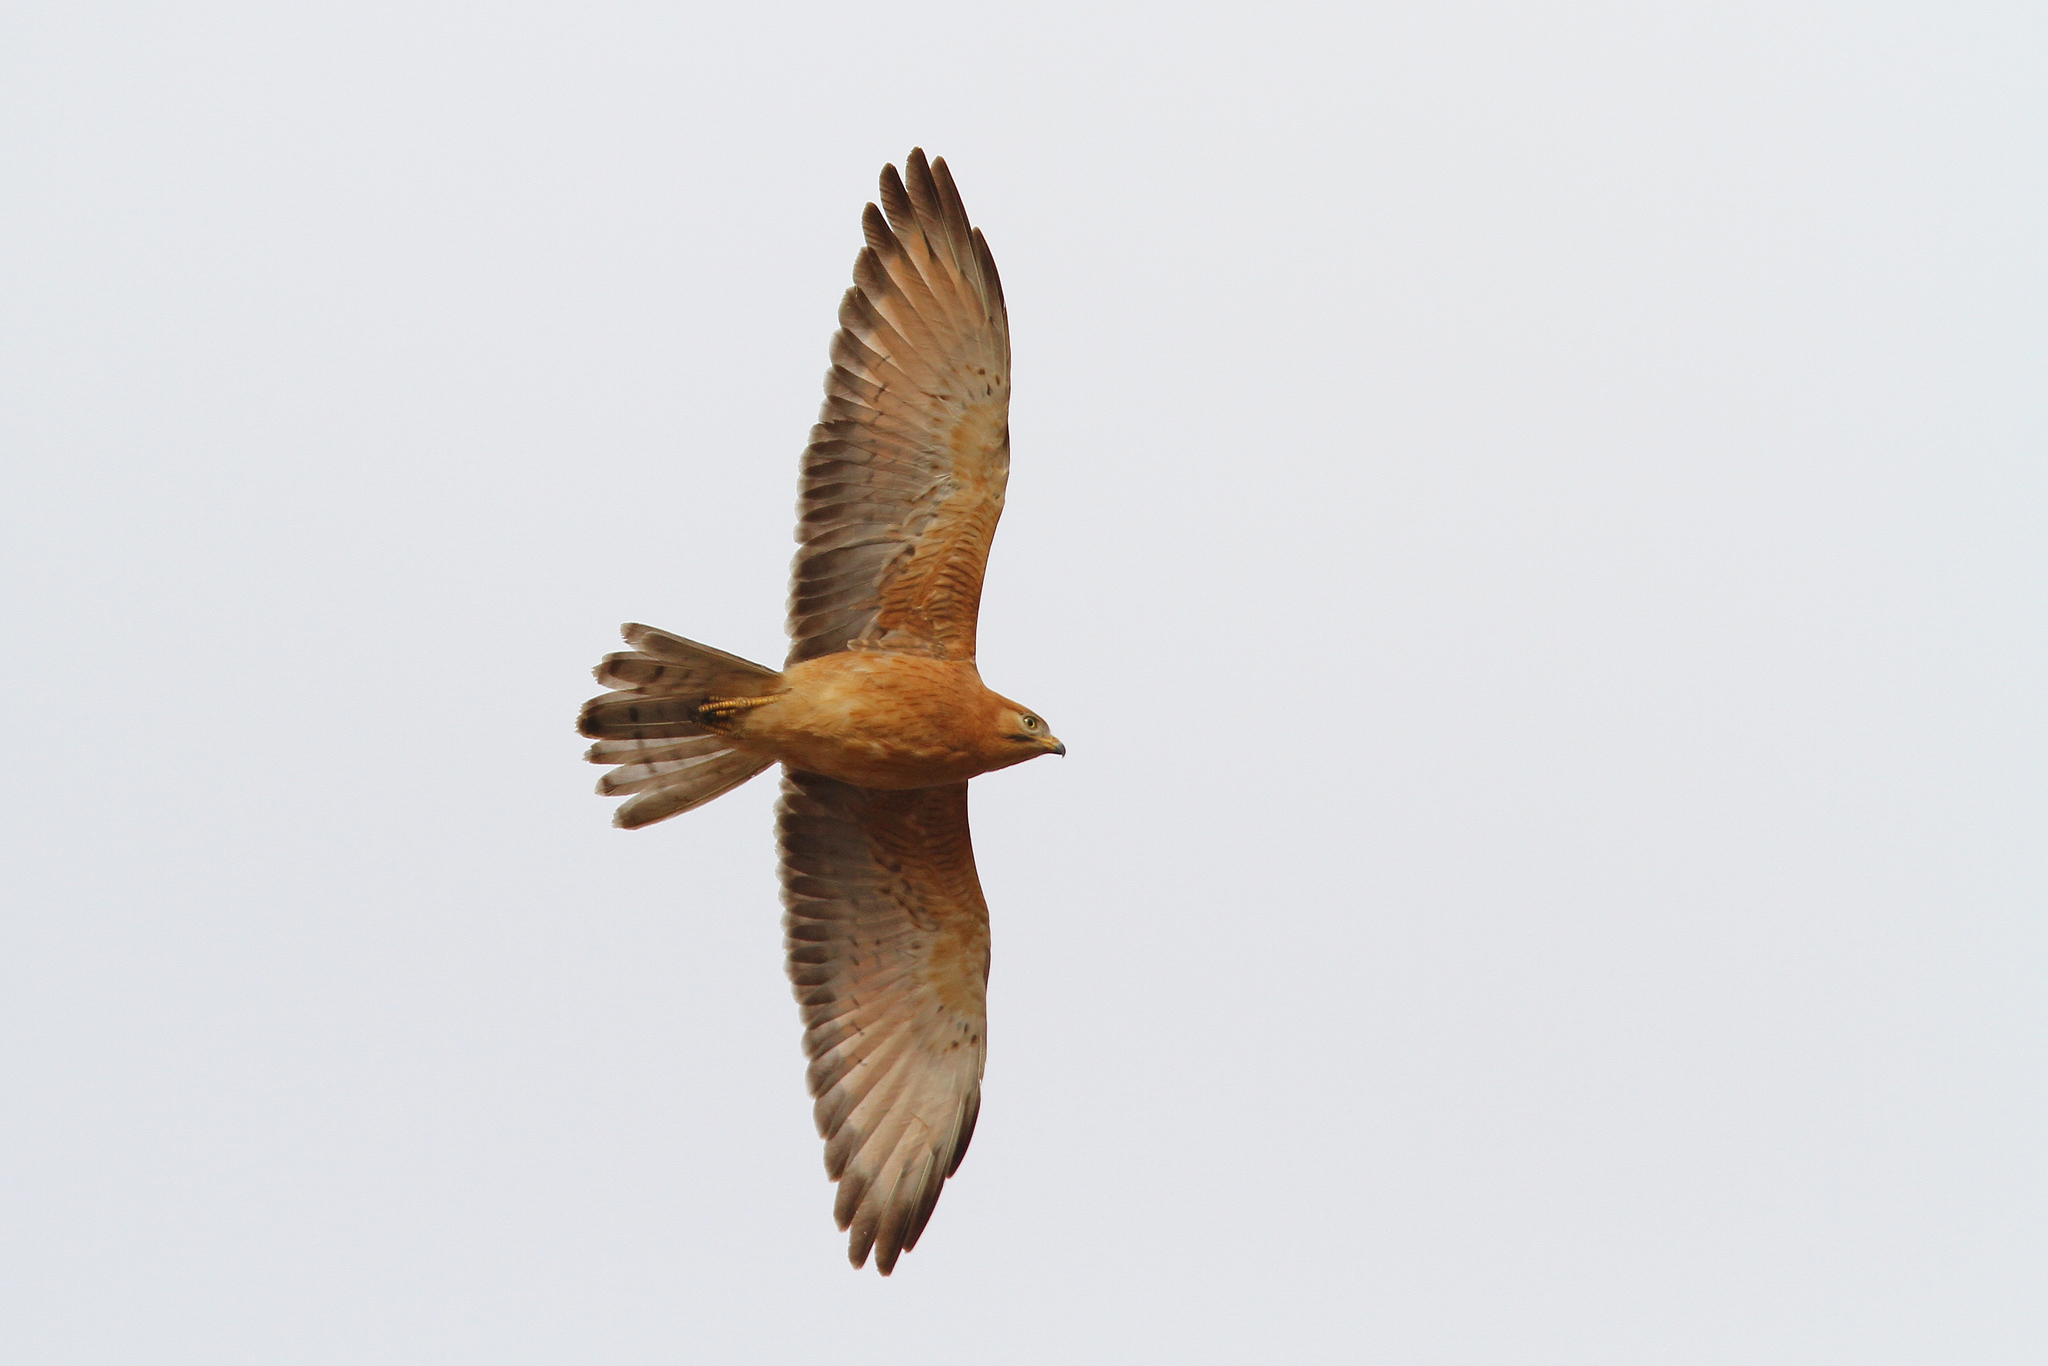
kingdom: Animalia
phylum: Chordata
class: Aves
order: Accipitriformes
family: Accipitridae
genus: Butastur
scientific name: Butastur rufipennis
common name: Grasshopper buzzard
